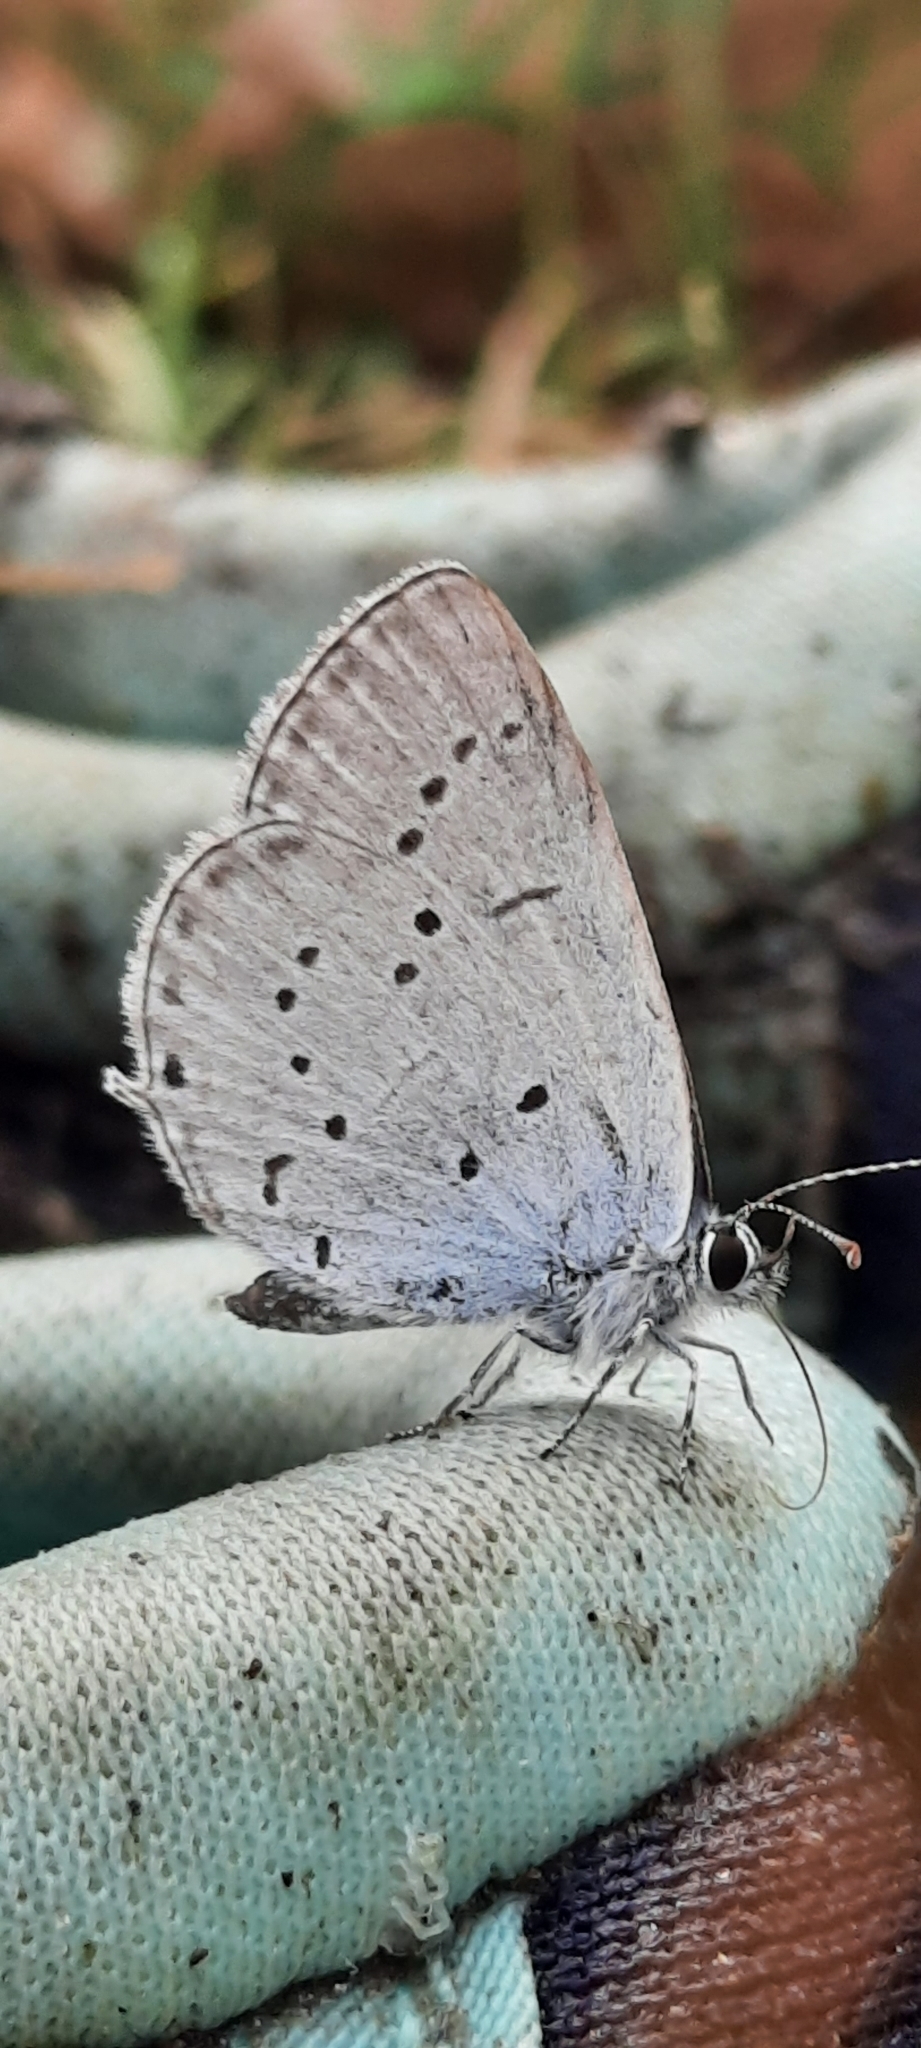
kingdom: Animalia
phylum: Arthropoda
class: Insecta
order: Lepidoptera
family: Lycaenidae
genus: Elkalyce
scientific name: Elkalyce alcetas
